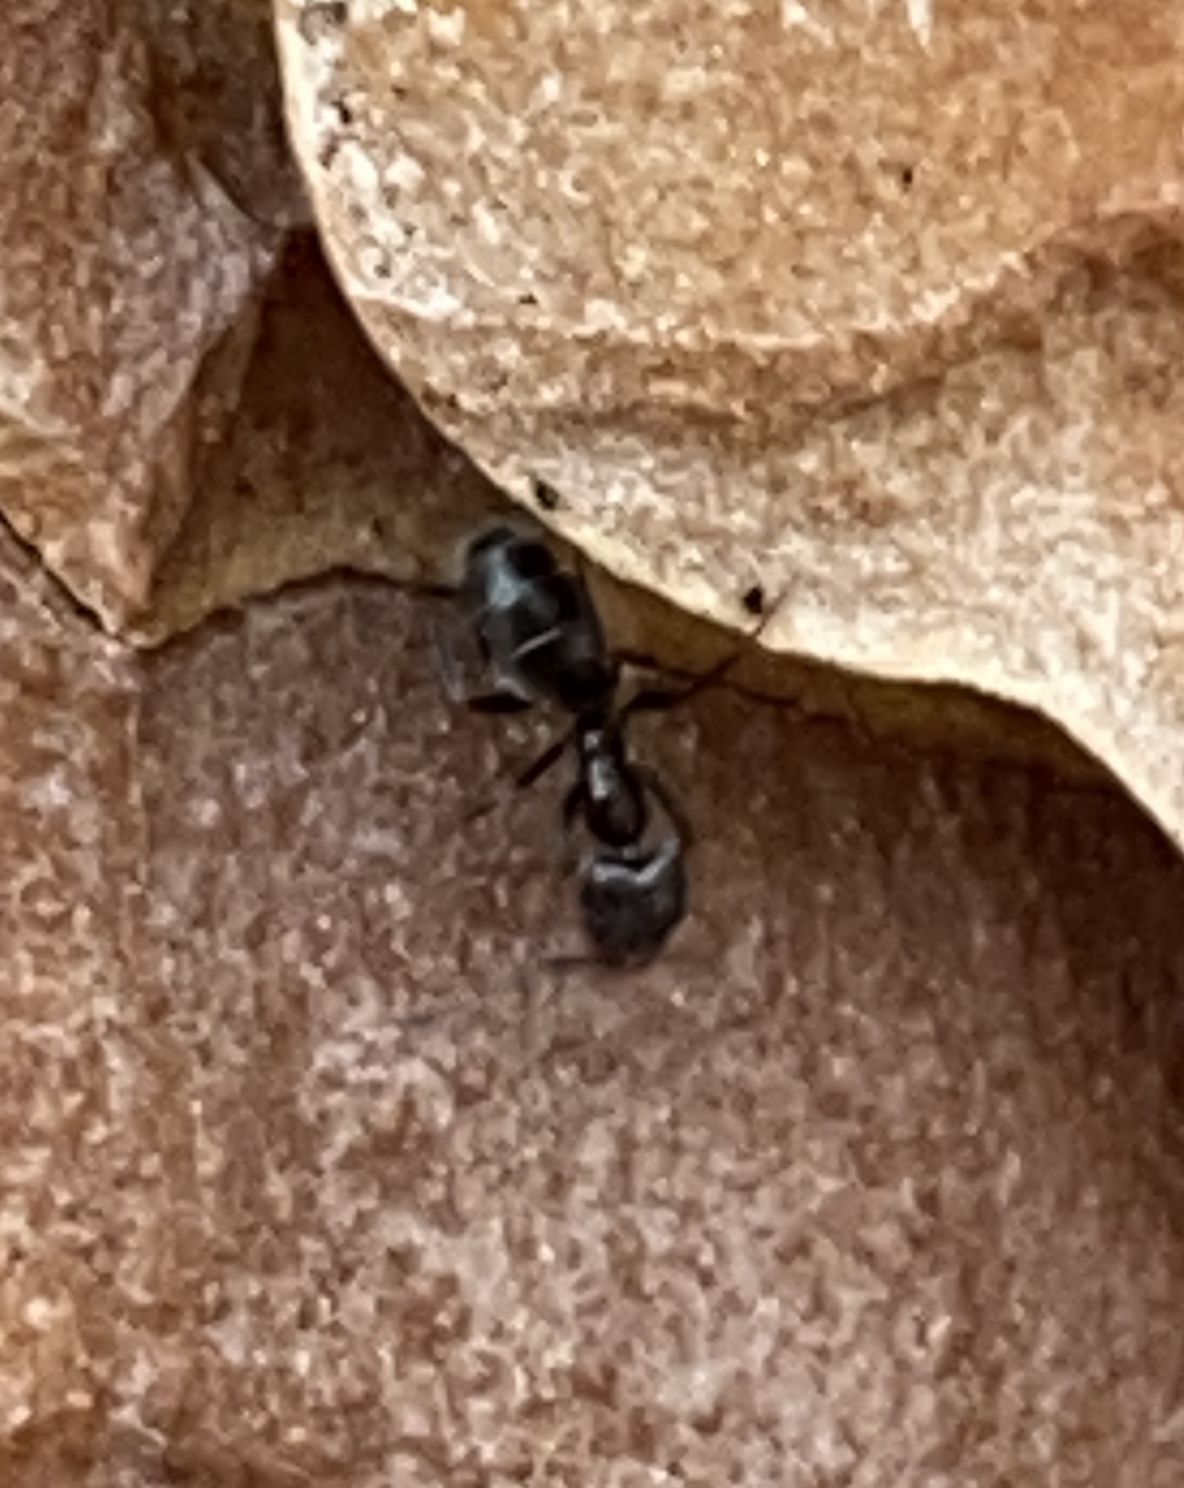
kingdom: Animalia
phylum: Arthropoda
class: Insecta
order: Hymenoptera
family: Formicidae
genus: Liometopum
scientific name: Liometopum luctuosum
